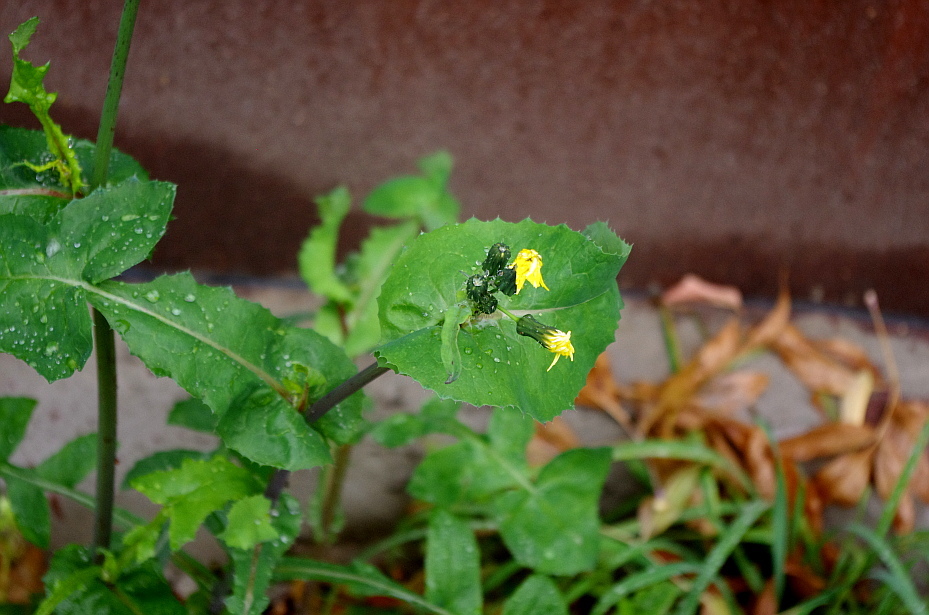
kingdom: Plantae
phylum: Tracheophyta
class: Magnoliopsida
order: Asterales
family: Asteraceae
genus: Sonchus
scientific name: Sonchus oleraceus
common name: Common sowthistle
